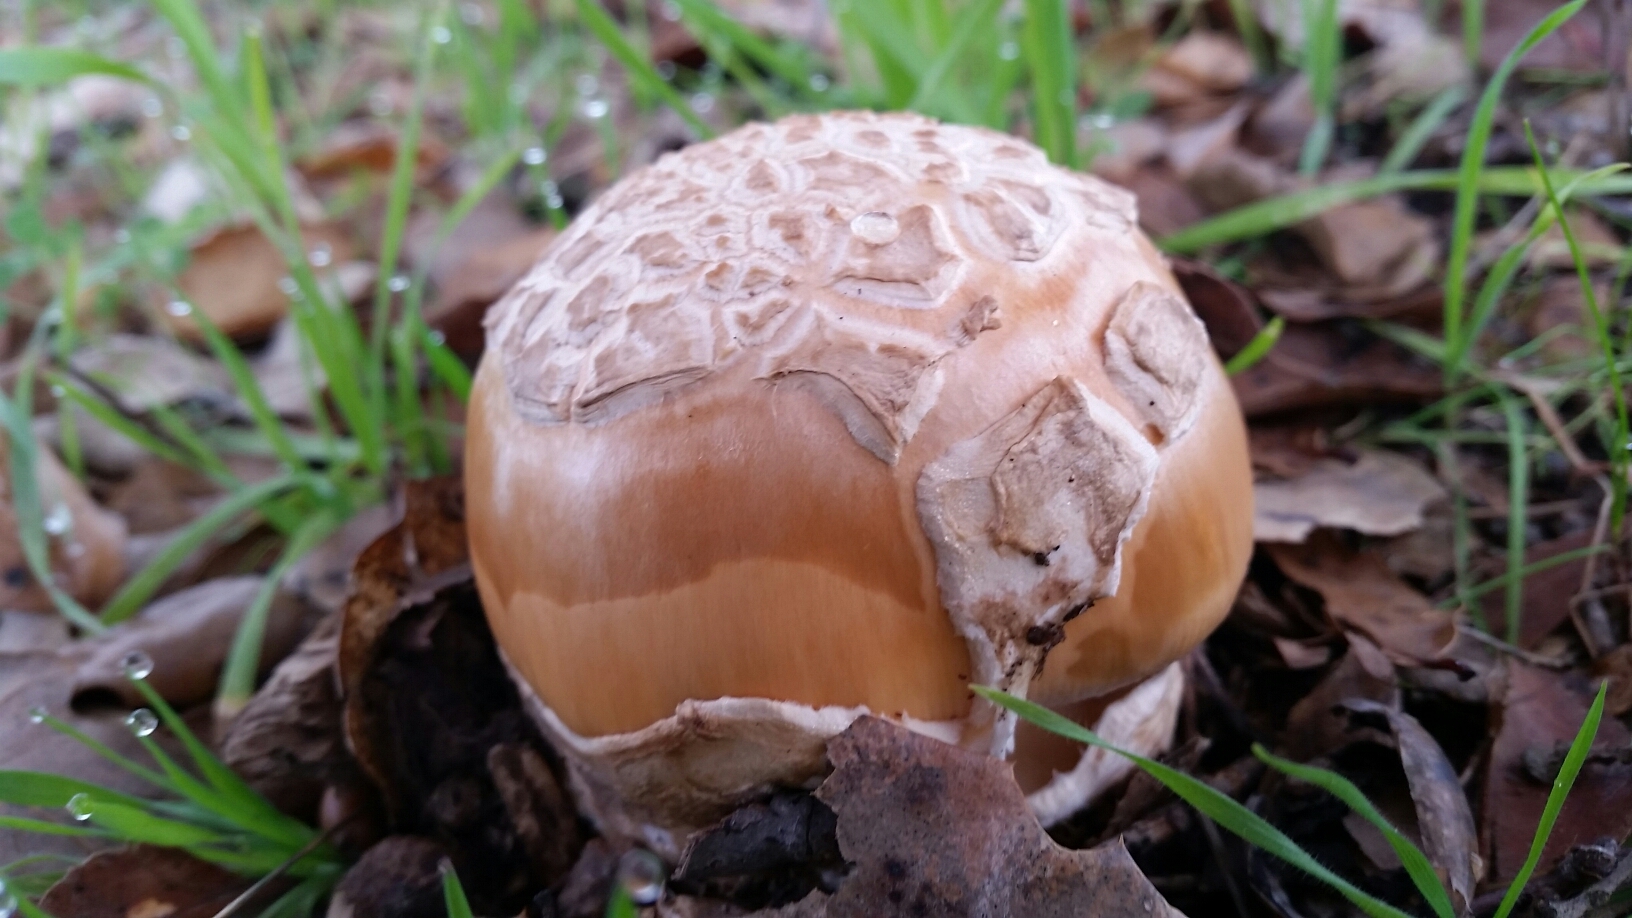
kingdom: Fungi
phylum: Basidiomycota
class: Agaricomycetes
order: Agaricales
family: Amanitaceae
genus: Amanita
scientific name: Amanita velosa
